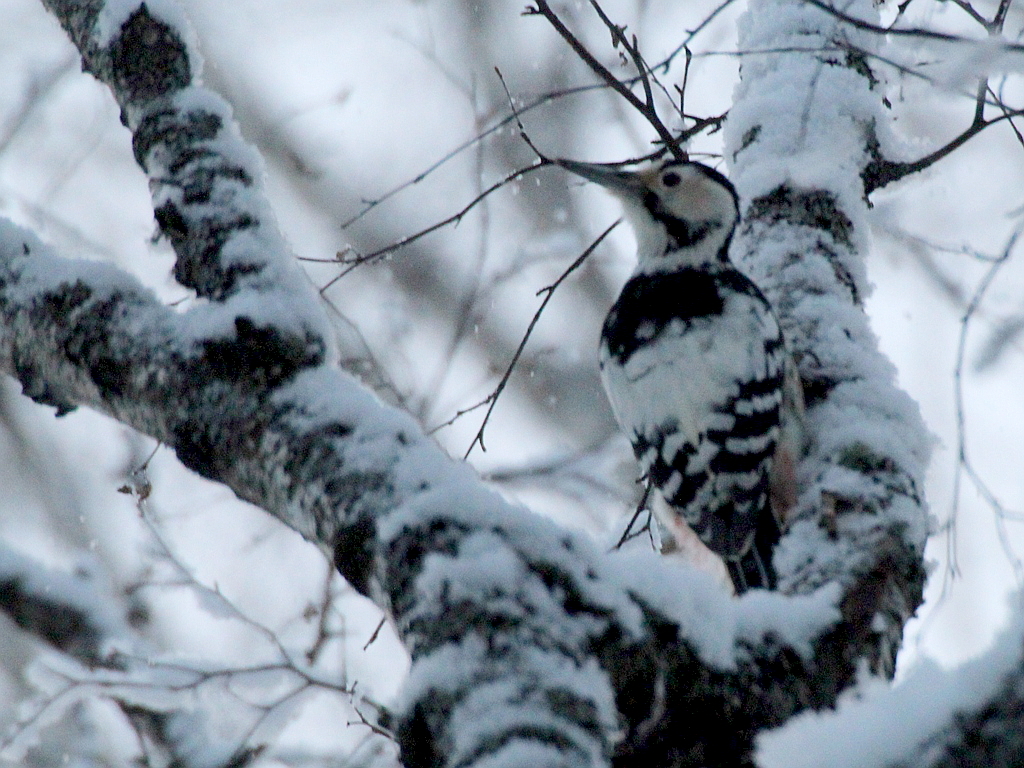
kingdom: Animalia
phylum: Chordata
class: Aves
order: Piciformes
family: Picidae
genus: Dendrocopos
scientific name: Dendrocopos leucotos
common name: White-backed woodpecker
